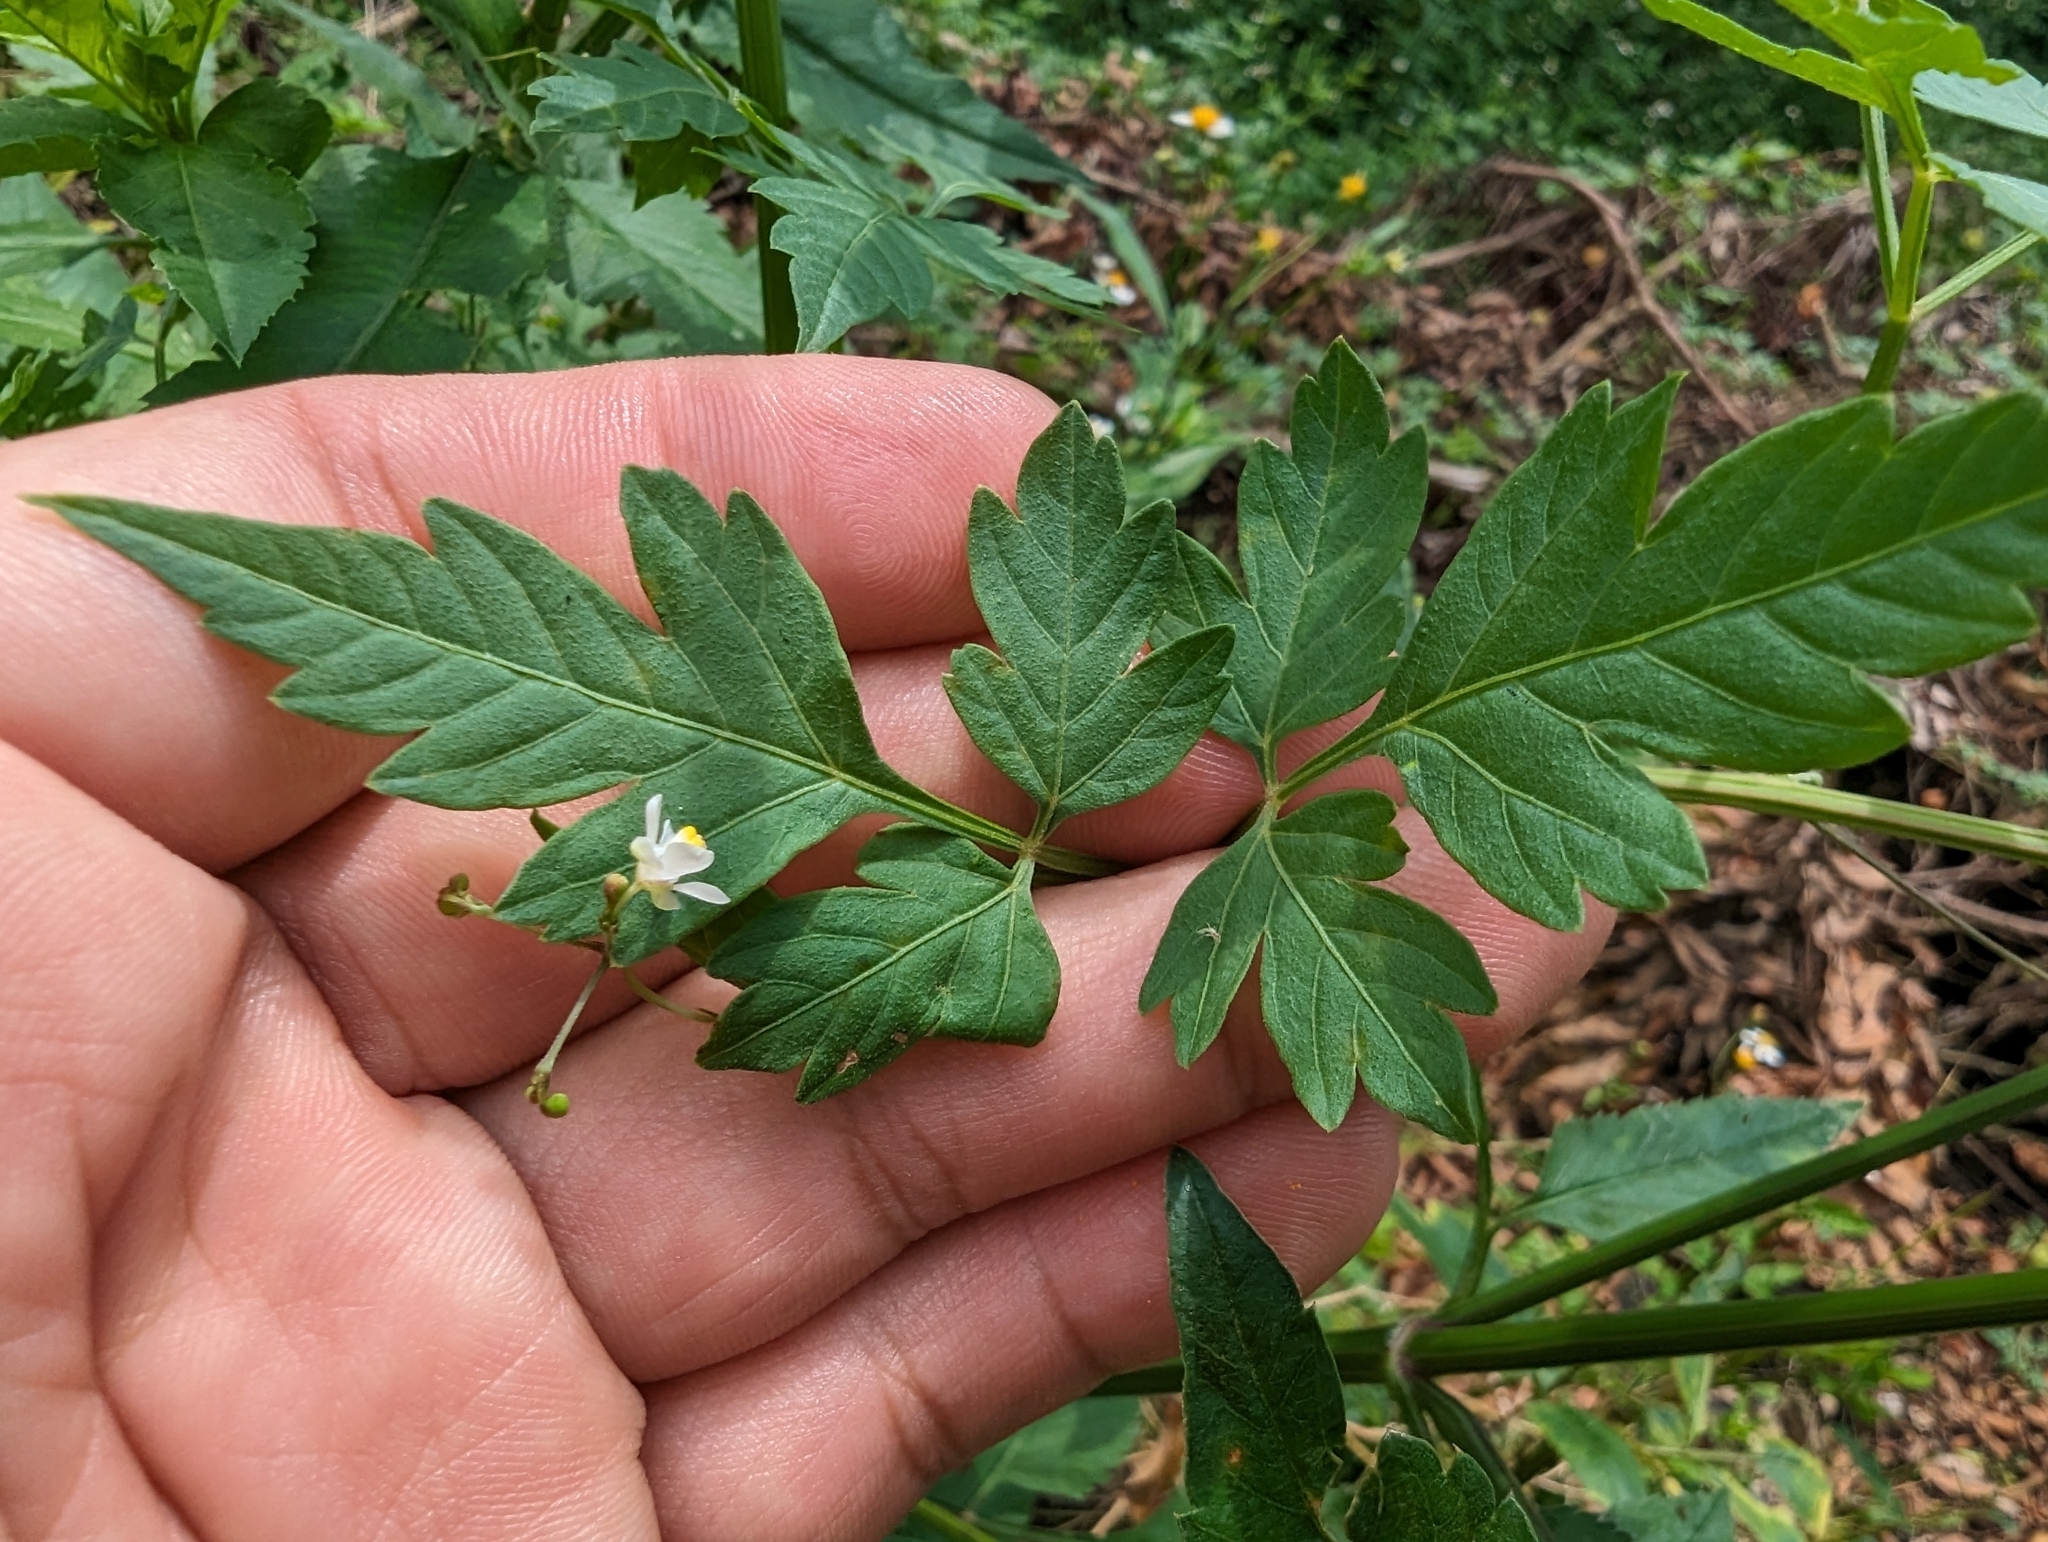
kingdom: Plantae
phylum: Tracheophyta
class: Magnoliopsida
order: Sapindales
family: Sapindaceae
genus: Cardiospermum
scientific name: Cardiospermum halicacabum
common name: Balloon vine
